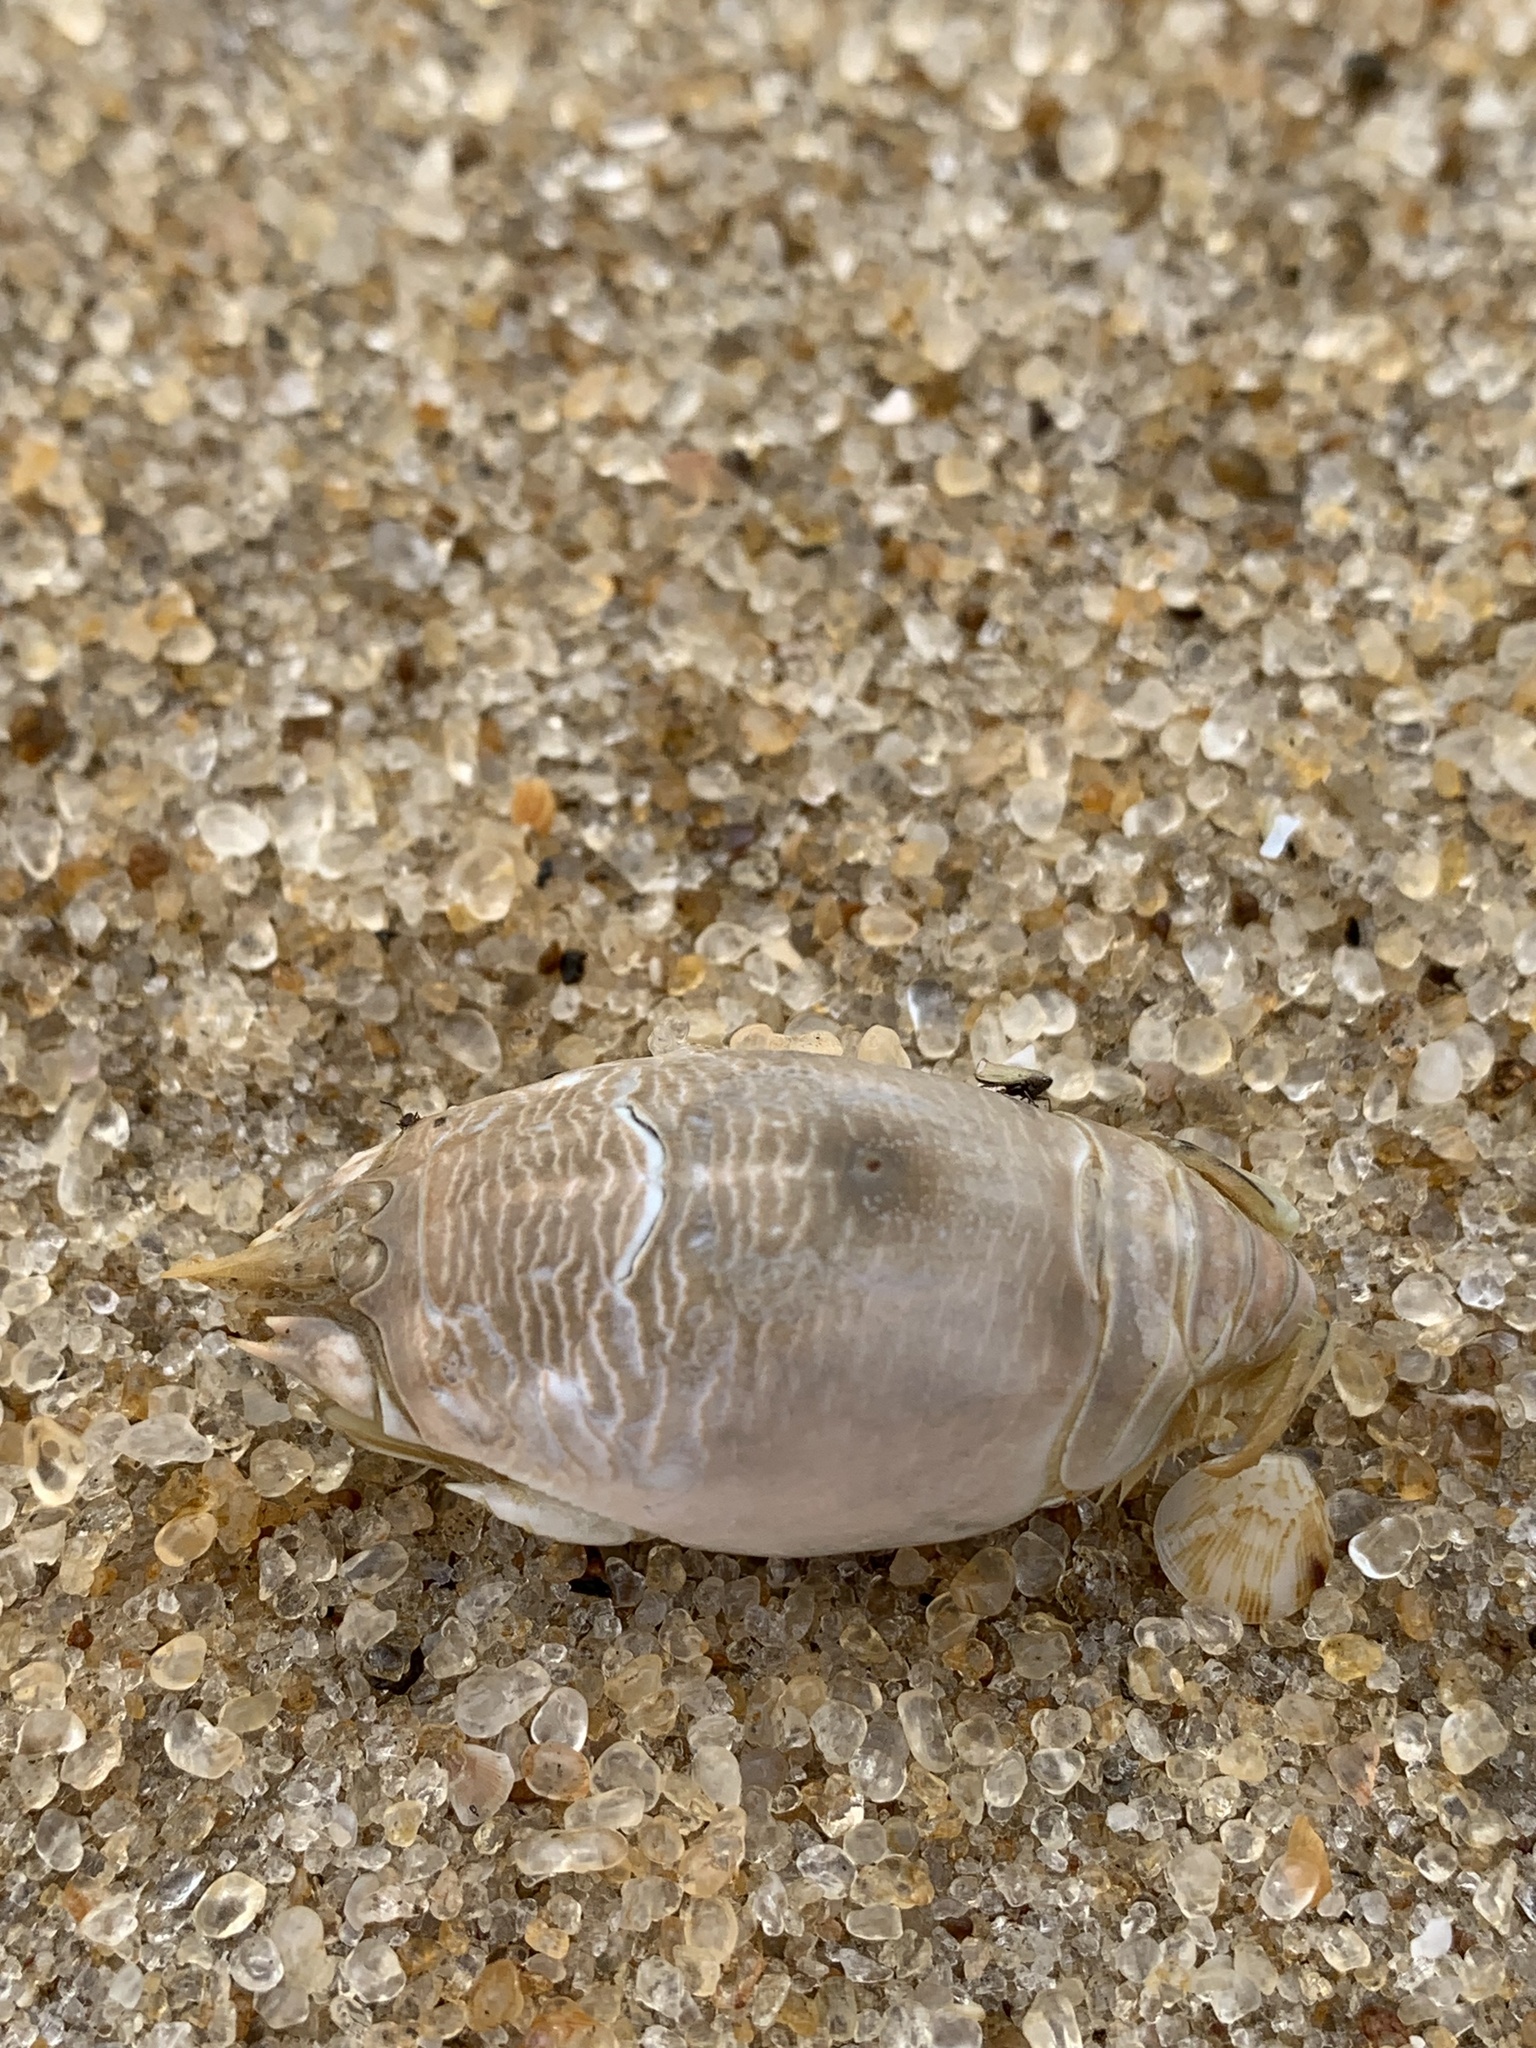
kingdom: Animalia
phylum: Arthropoda
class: Malacostraca
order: Decapoda
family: Hippidae
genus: Emerita
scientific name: Emerita brasiliensis
